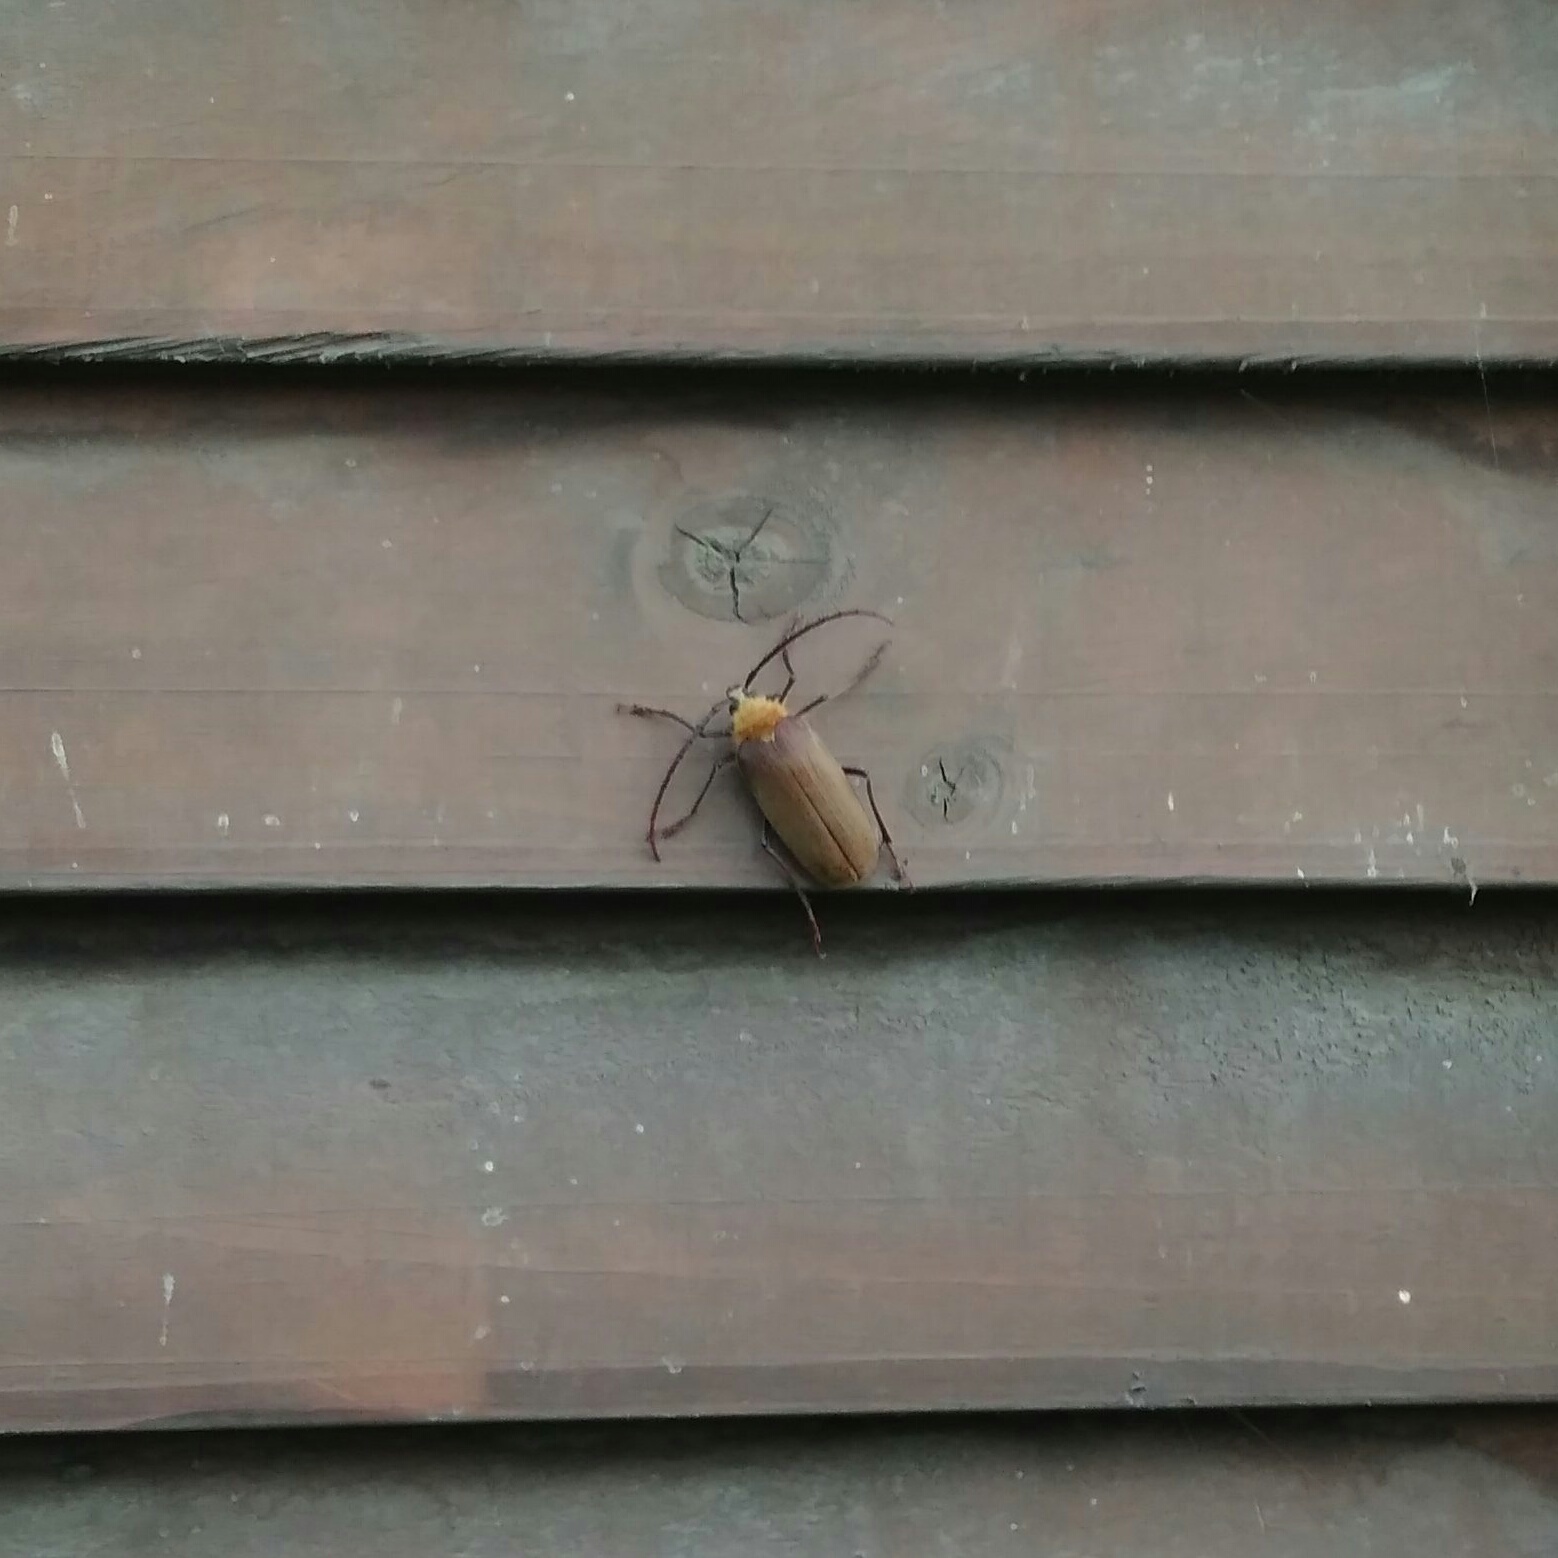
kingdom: Animalia
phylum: Arthropoda
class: Insecta
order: Coleoptera
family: Cerambycidae
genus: Acanthinodera
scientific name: Acanthinodera cumingii
